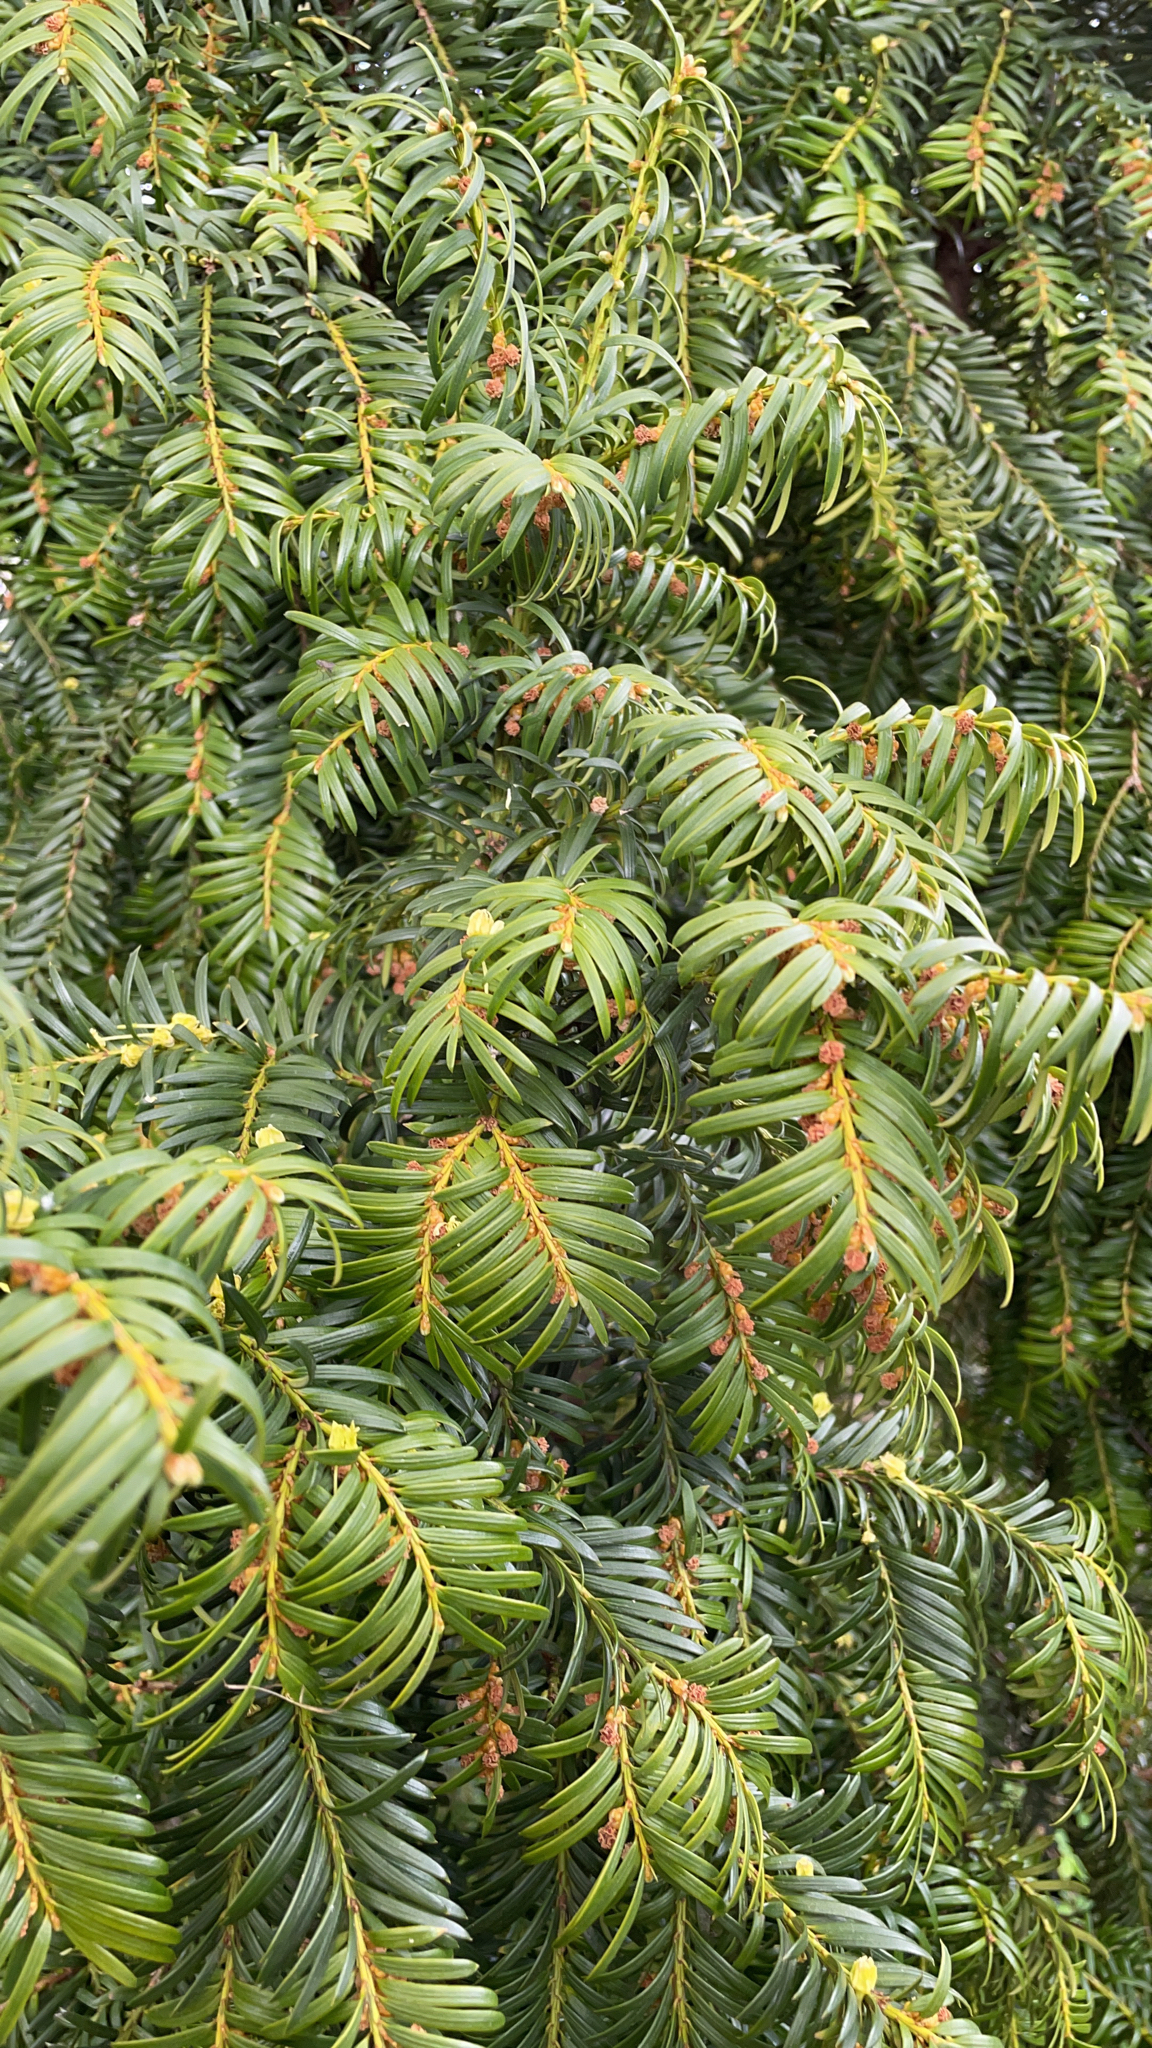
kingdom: Plantae
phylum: Tracheophyta
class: Pinopsida
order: Pinales
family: Taxaceae
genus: Taxus
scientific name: Taxus baccata
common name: Yew
